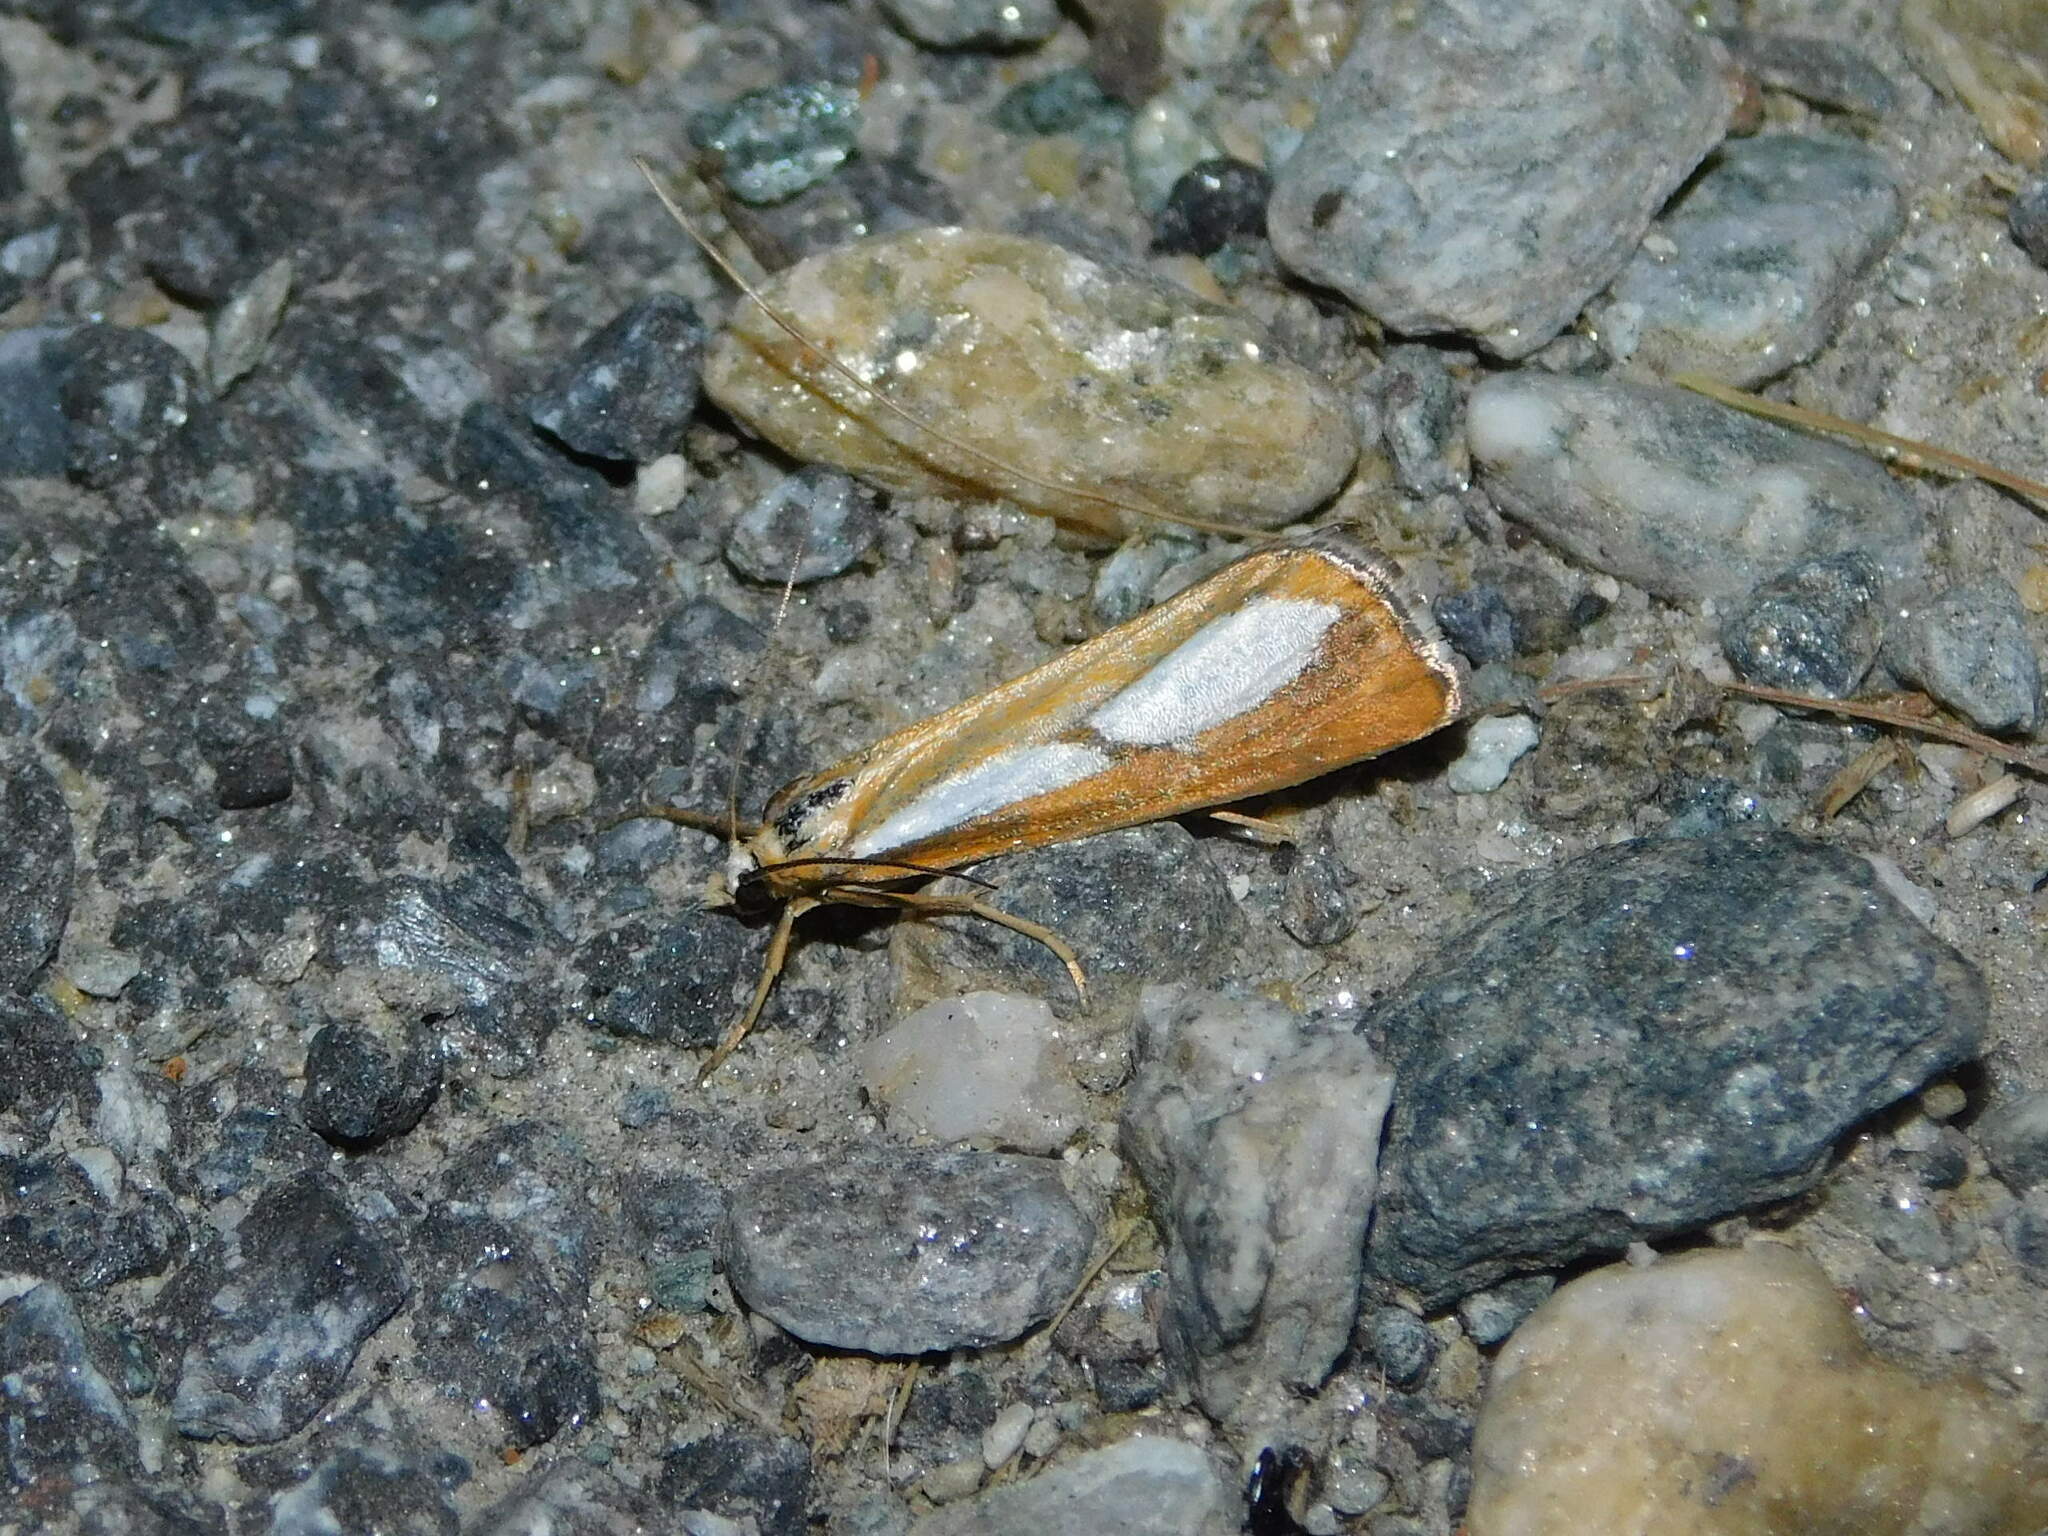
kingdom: Animalia
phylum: Arthropoda
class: Insecta
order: Lepidoptera
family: Crambidae
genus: Catoptria
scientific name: Catoptria conchella
